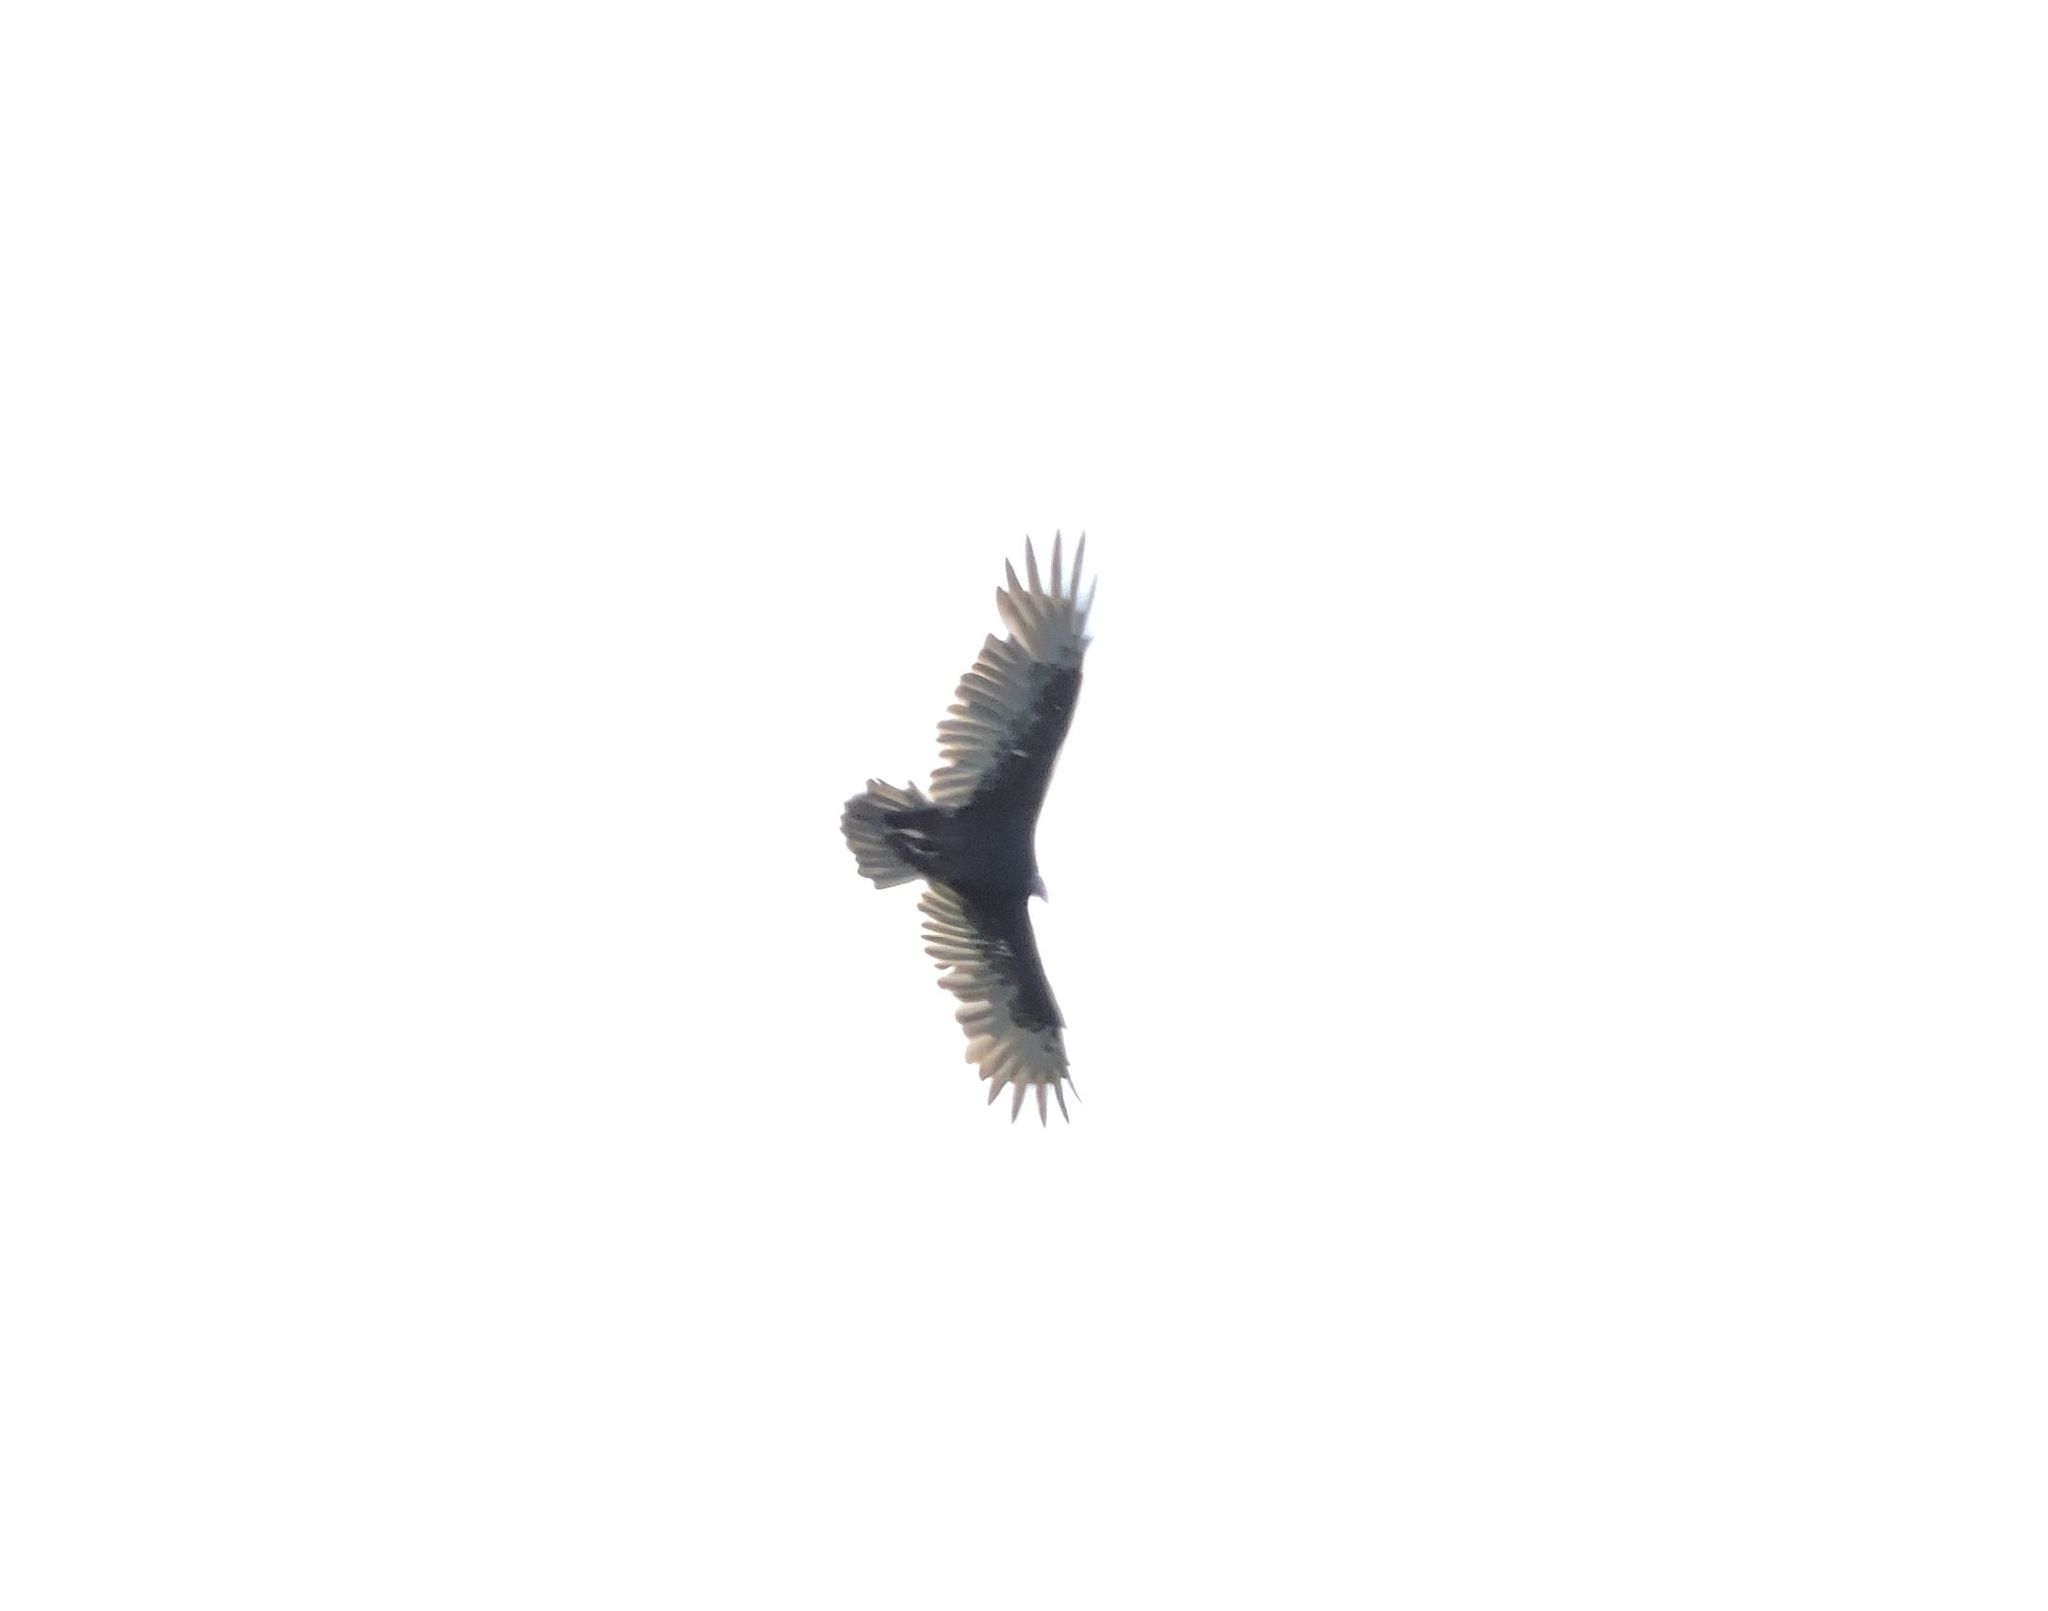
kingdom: Animalia
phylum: Chordata
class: Aves
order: Accipitriformes
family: Cathartidae
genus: Cathartes
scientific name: Cathartes aura
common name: Turkey vulture
